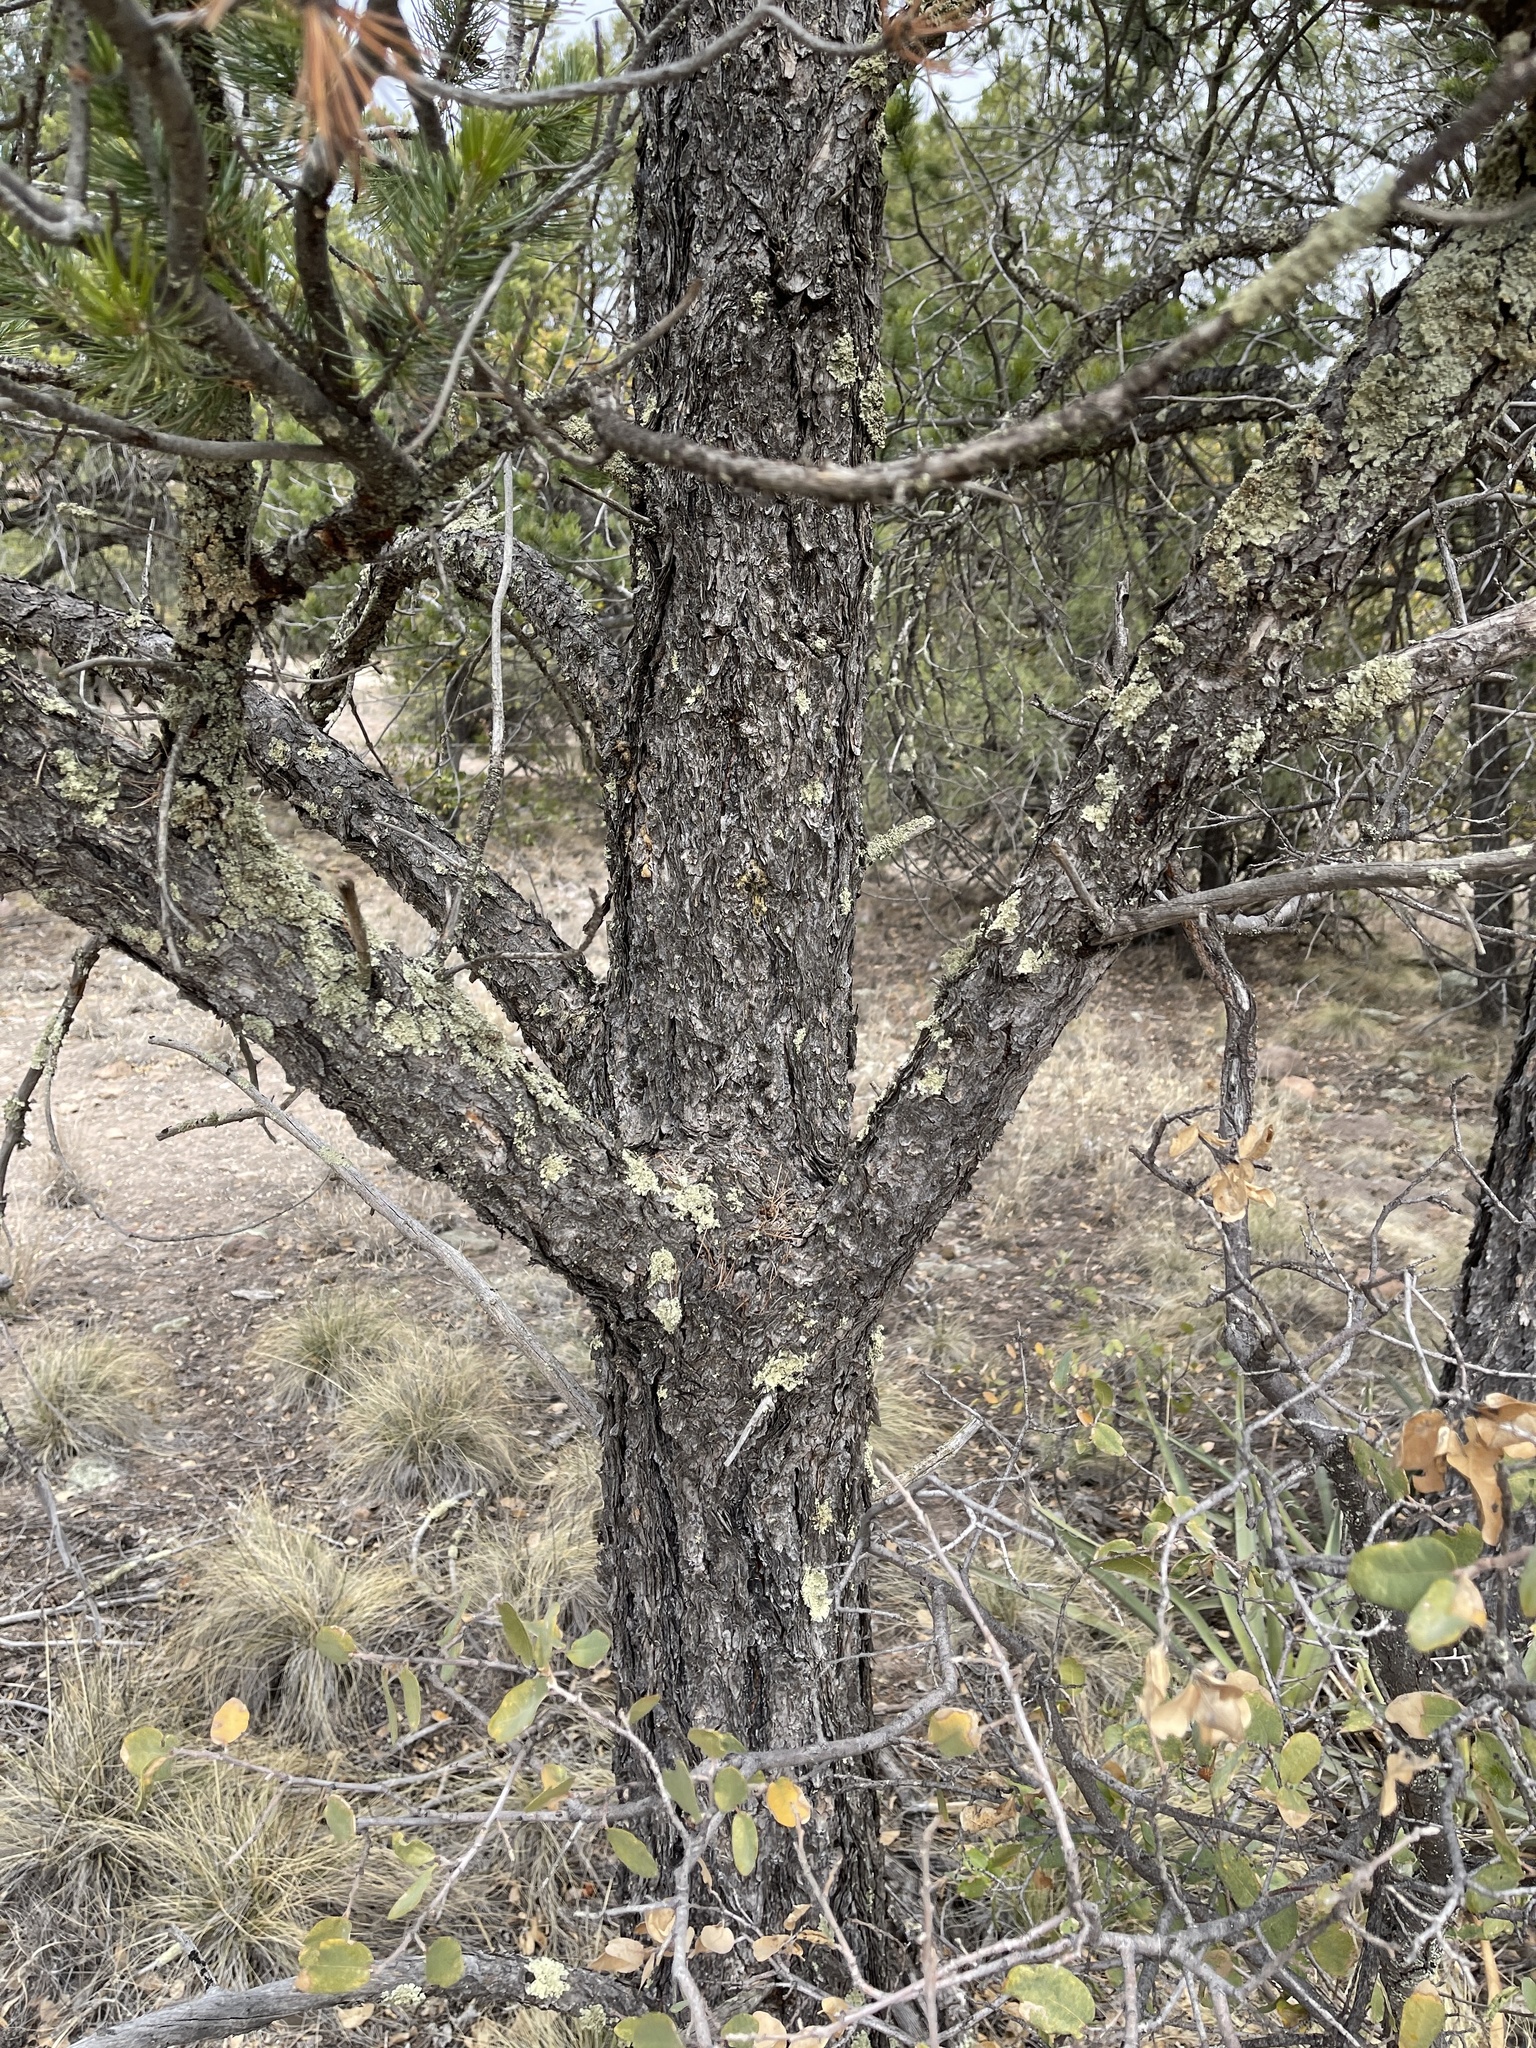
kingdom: Plantae
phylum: Tracheophyta
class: Pinopsida
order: Pinales
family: Pinaceae
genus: Pinus
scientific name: Pinus cembroides
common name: Mexican nut pine
